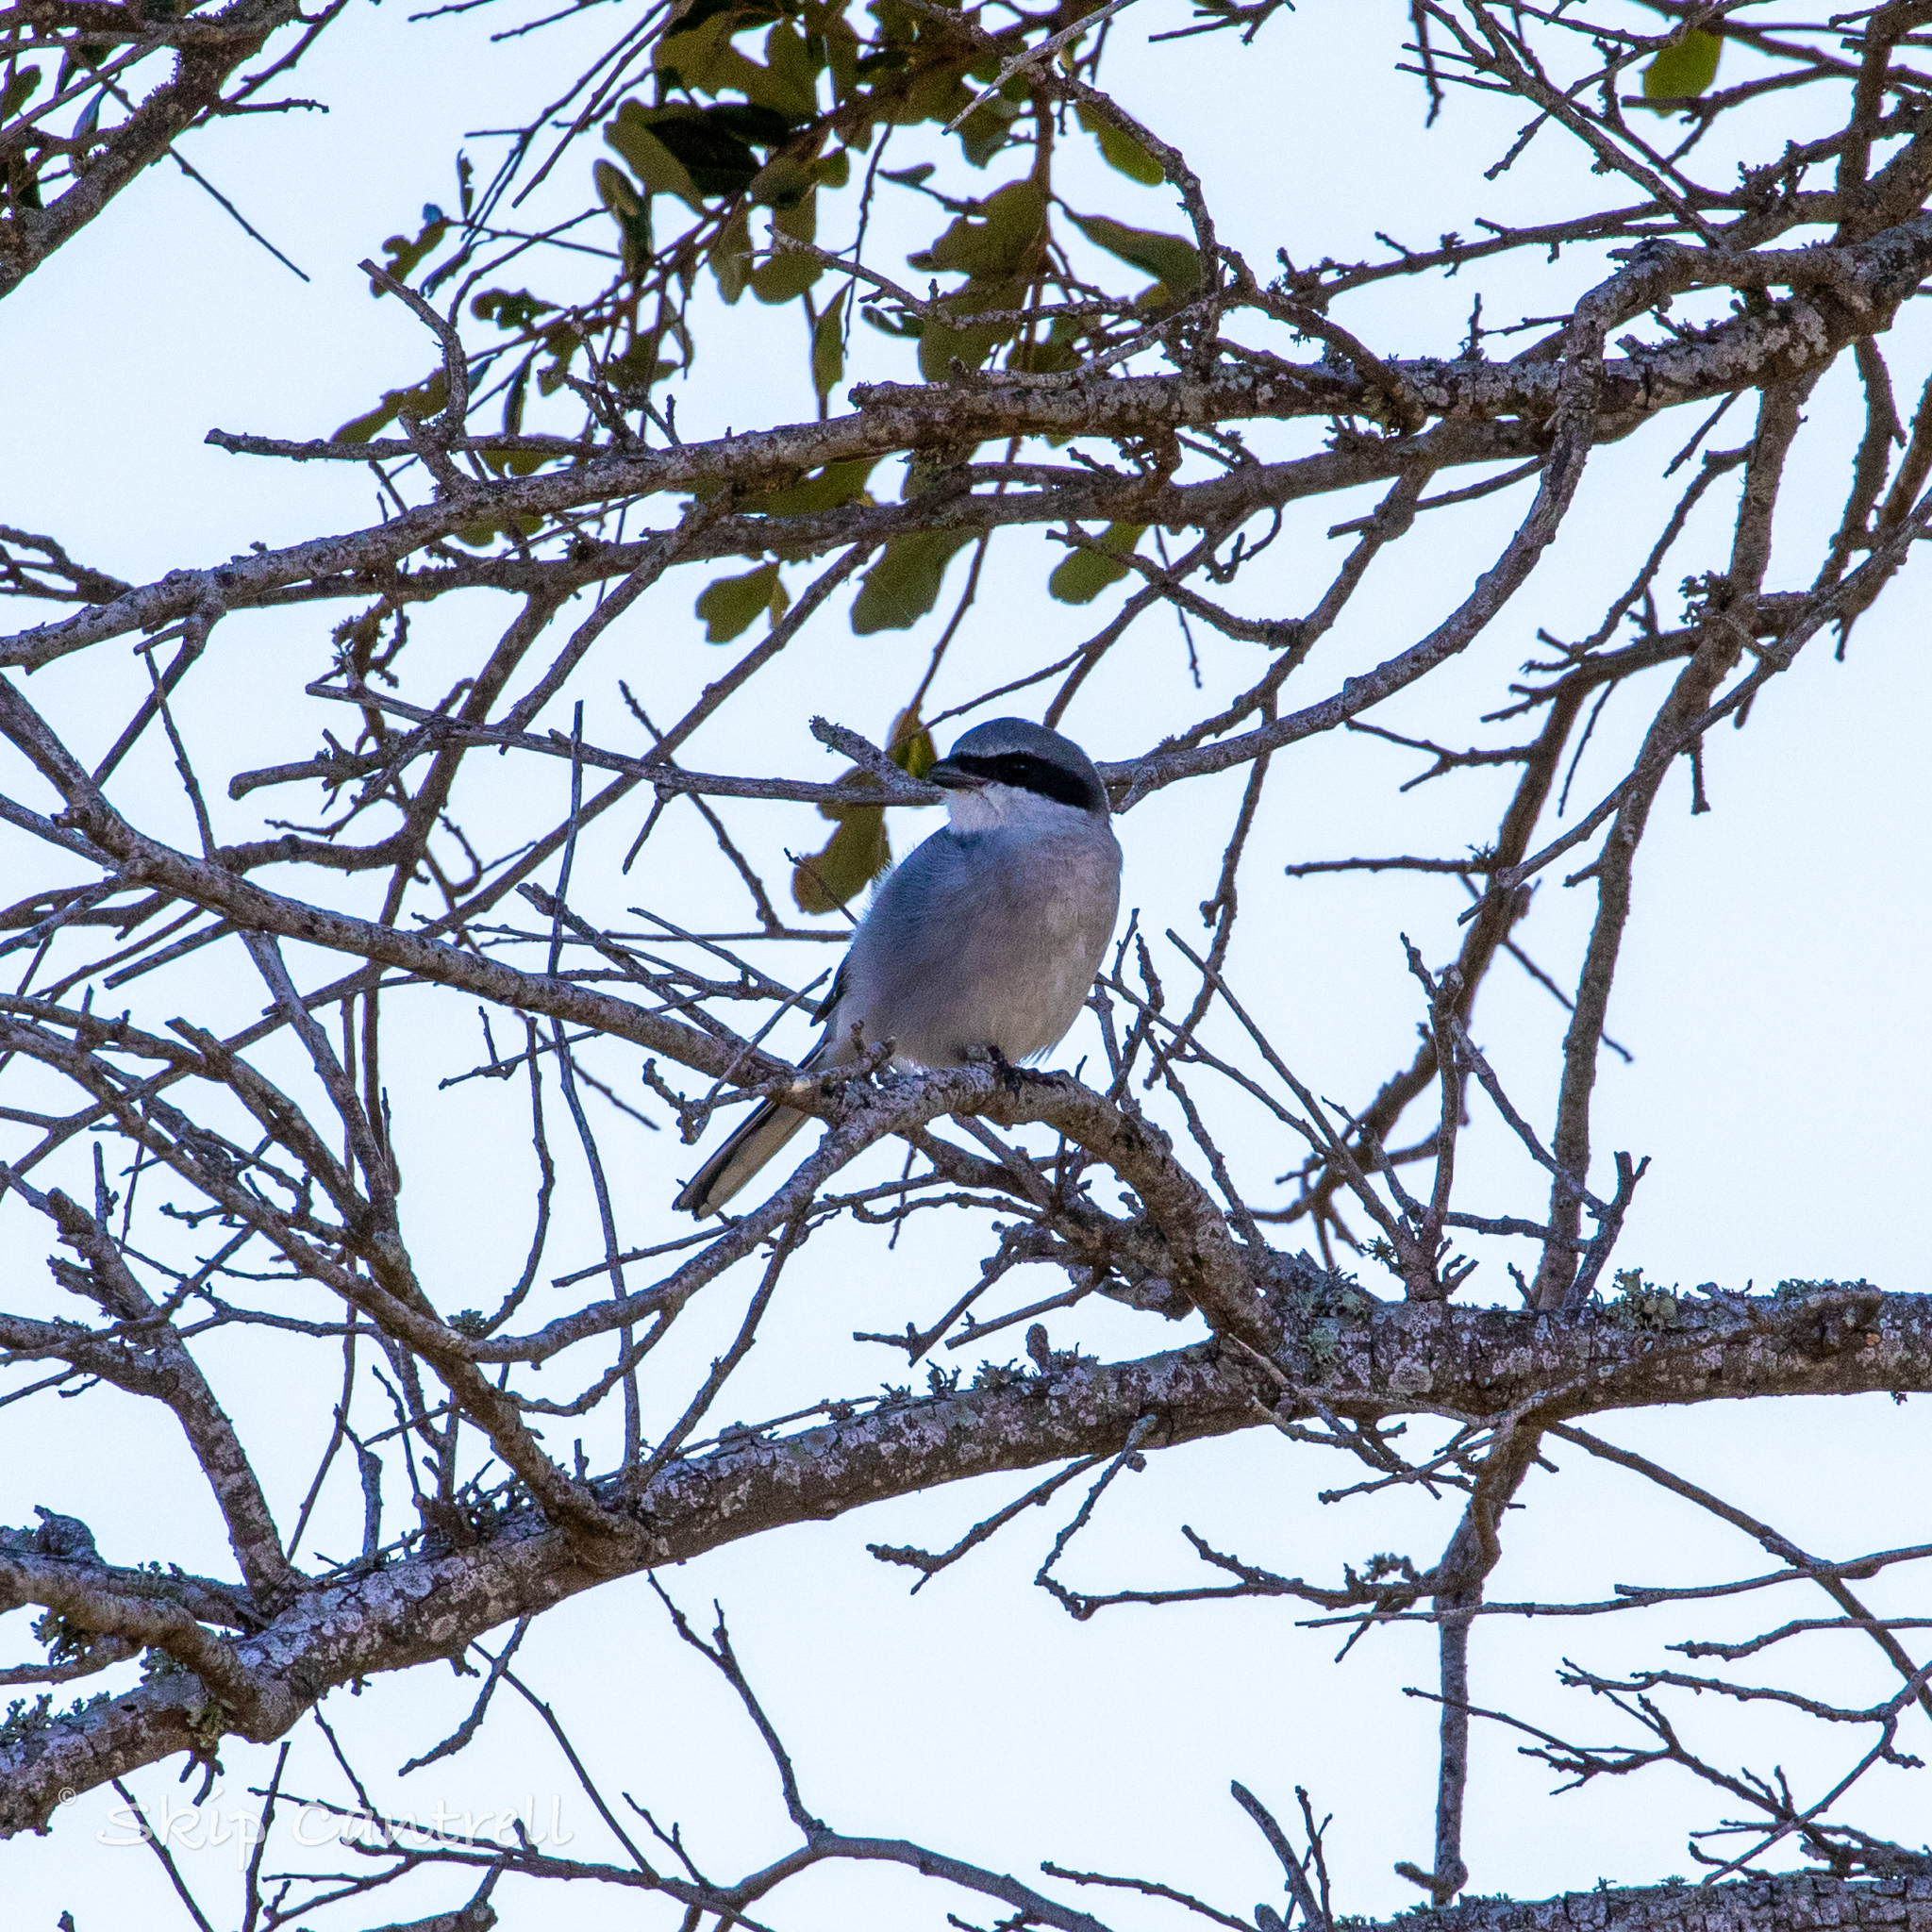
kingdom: Animalia
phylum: Chordata
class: Aves
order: Passeriformes
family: Laniidae
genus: Lanius
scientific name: Lanius ludovicianus
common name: Loggerhead shrike
